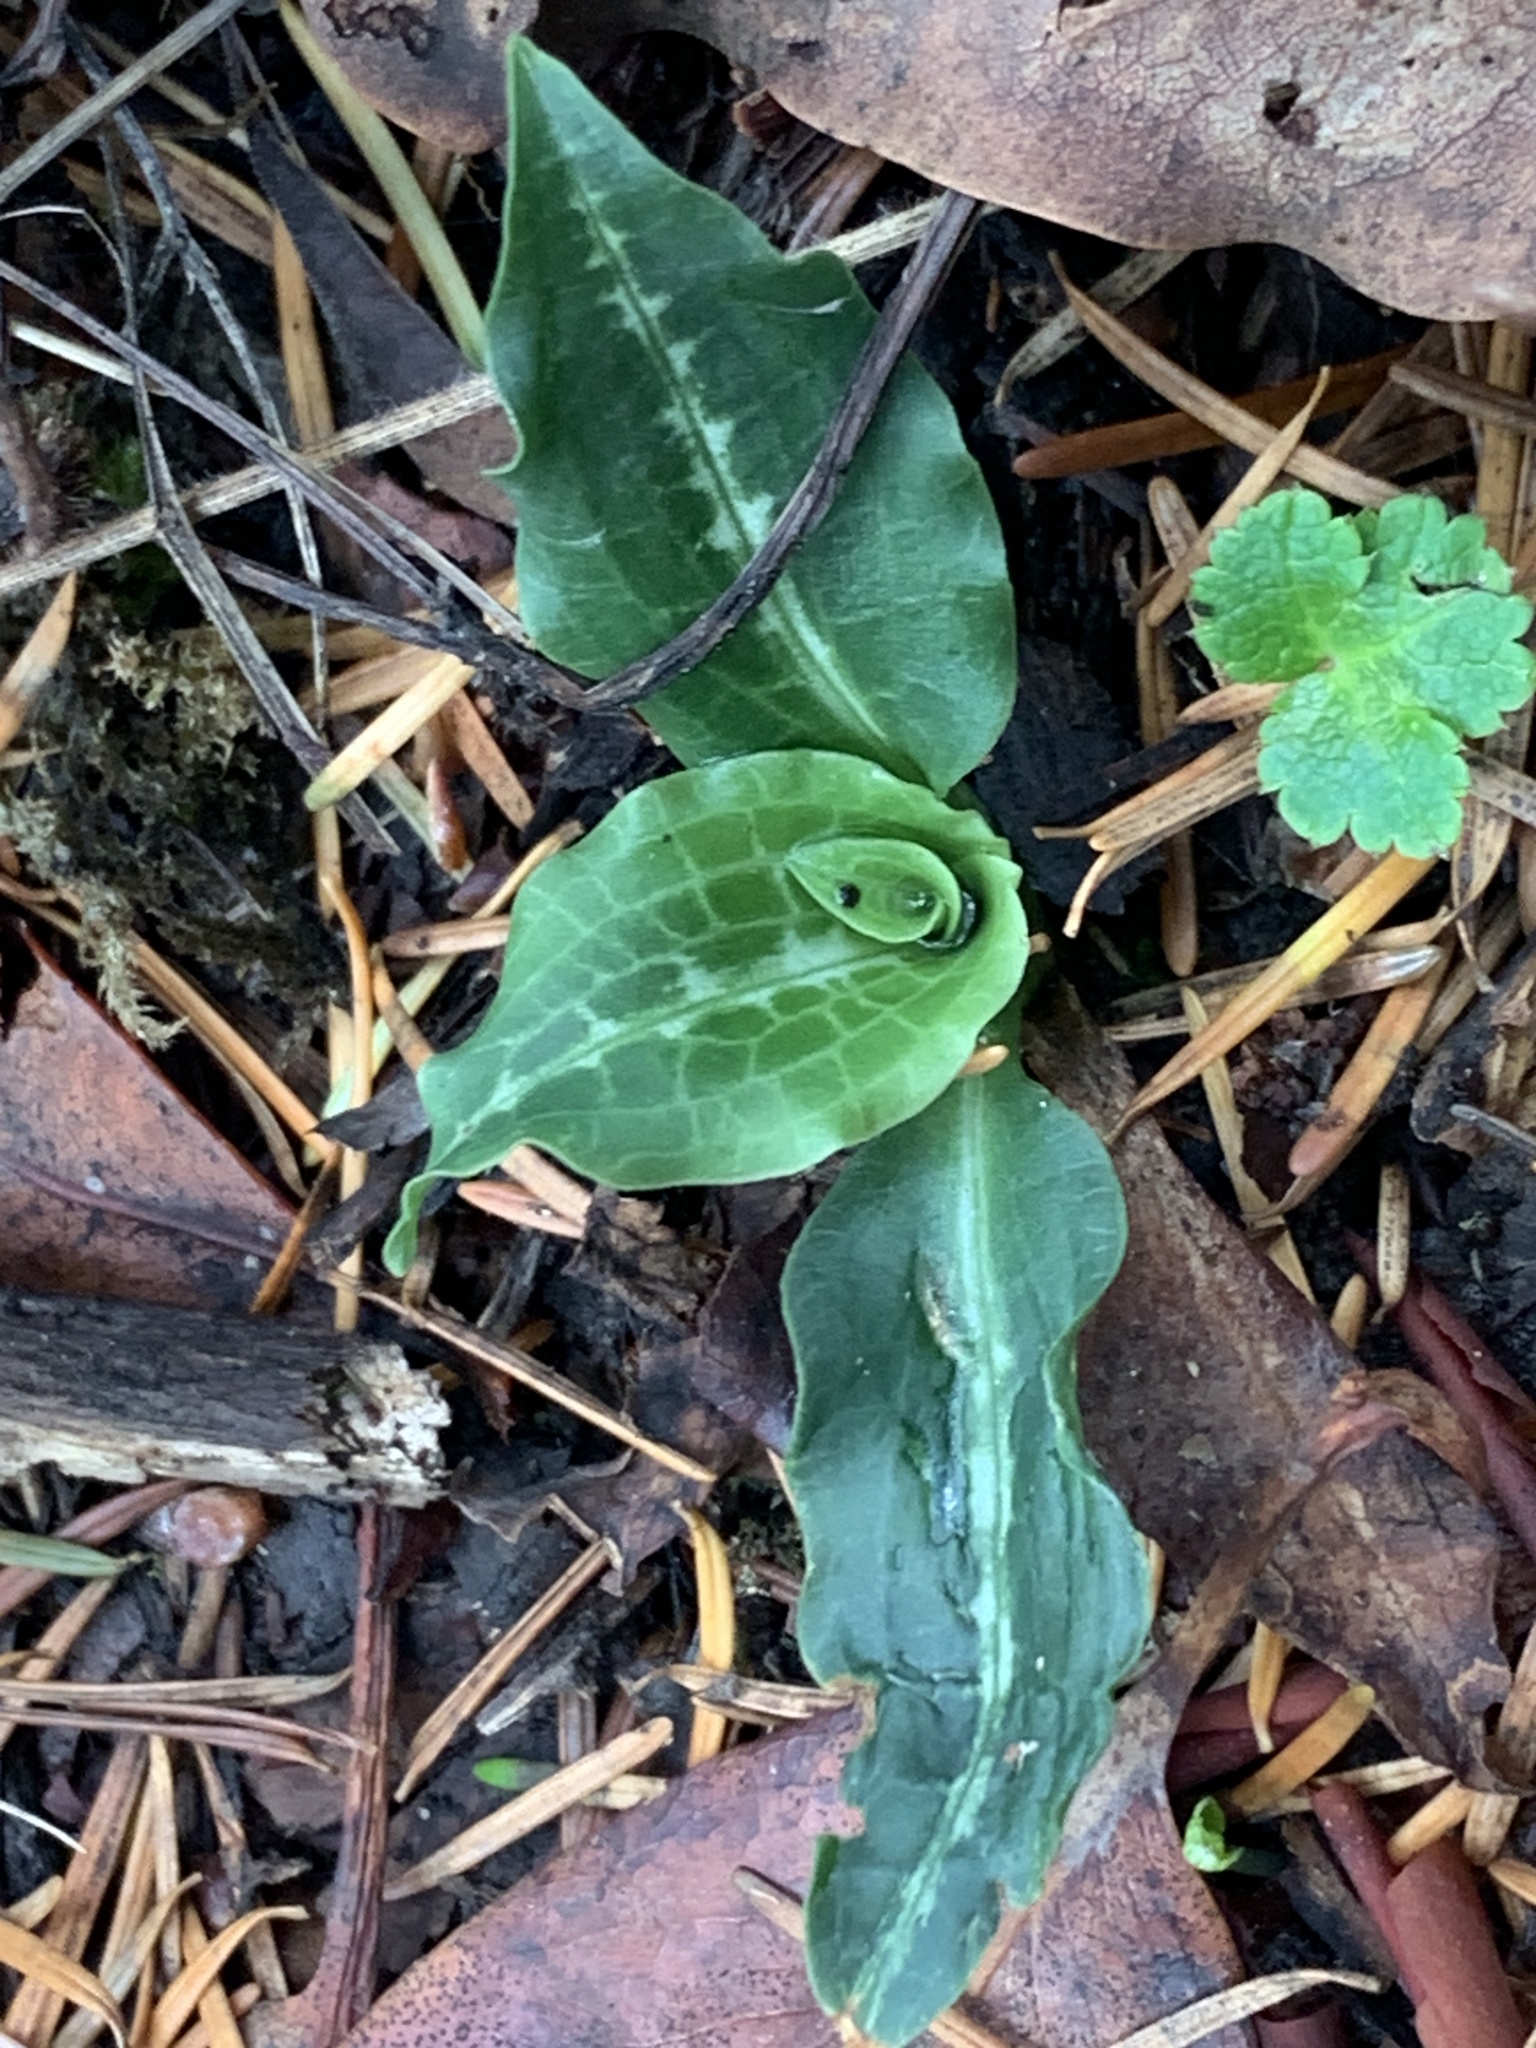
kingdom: Plantae
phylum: Tracheophyta
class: Liliopsida
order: Asparagales
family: Orchidaceae
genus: Goodyera
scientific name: Goodyera oblongifolia
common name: Giant rattlesnake-plantain
